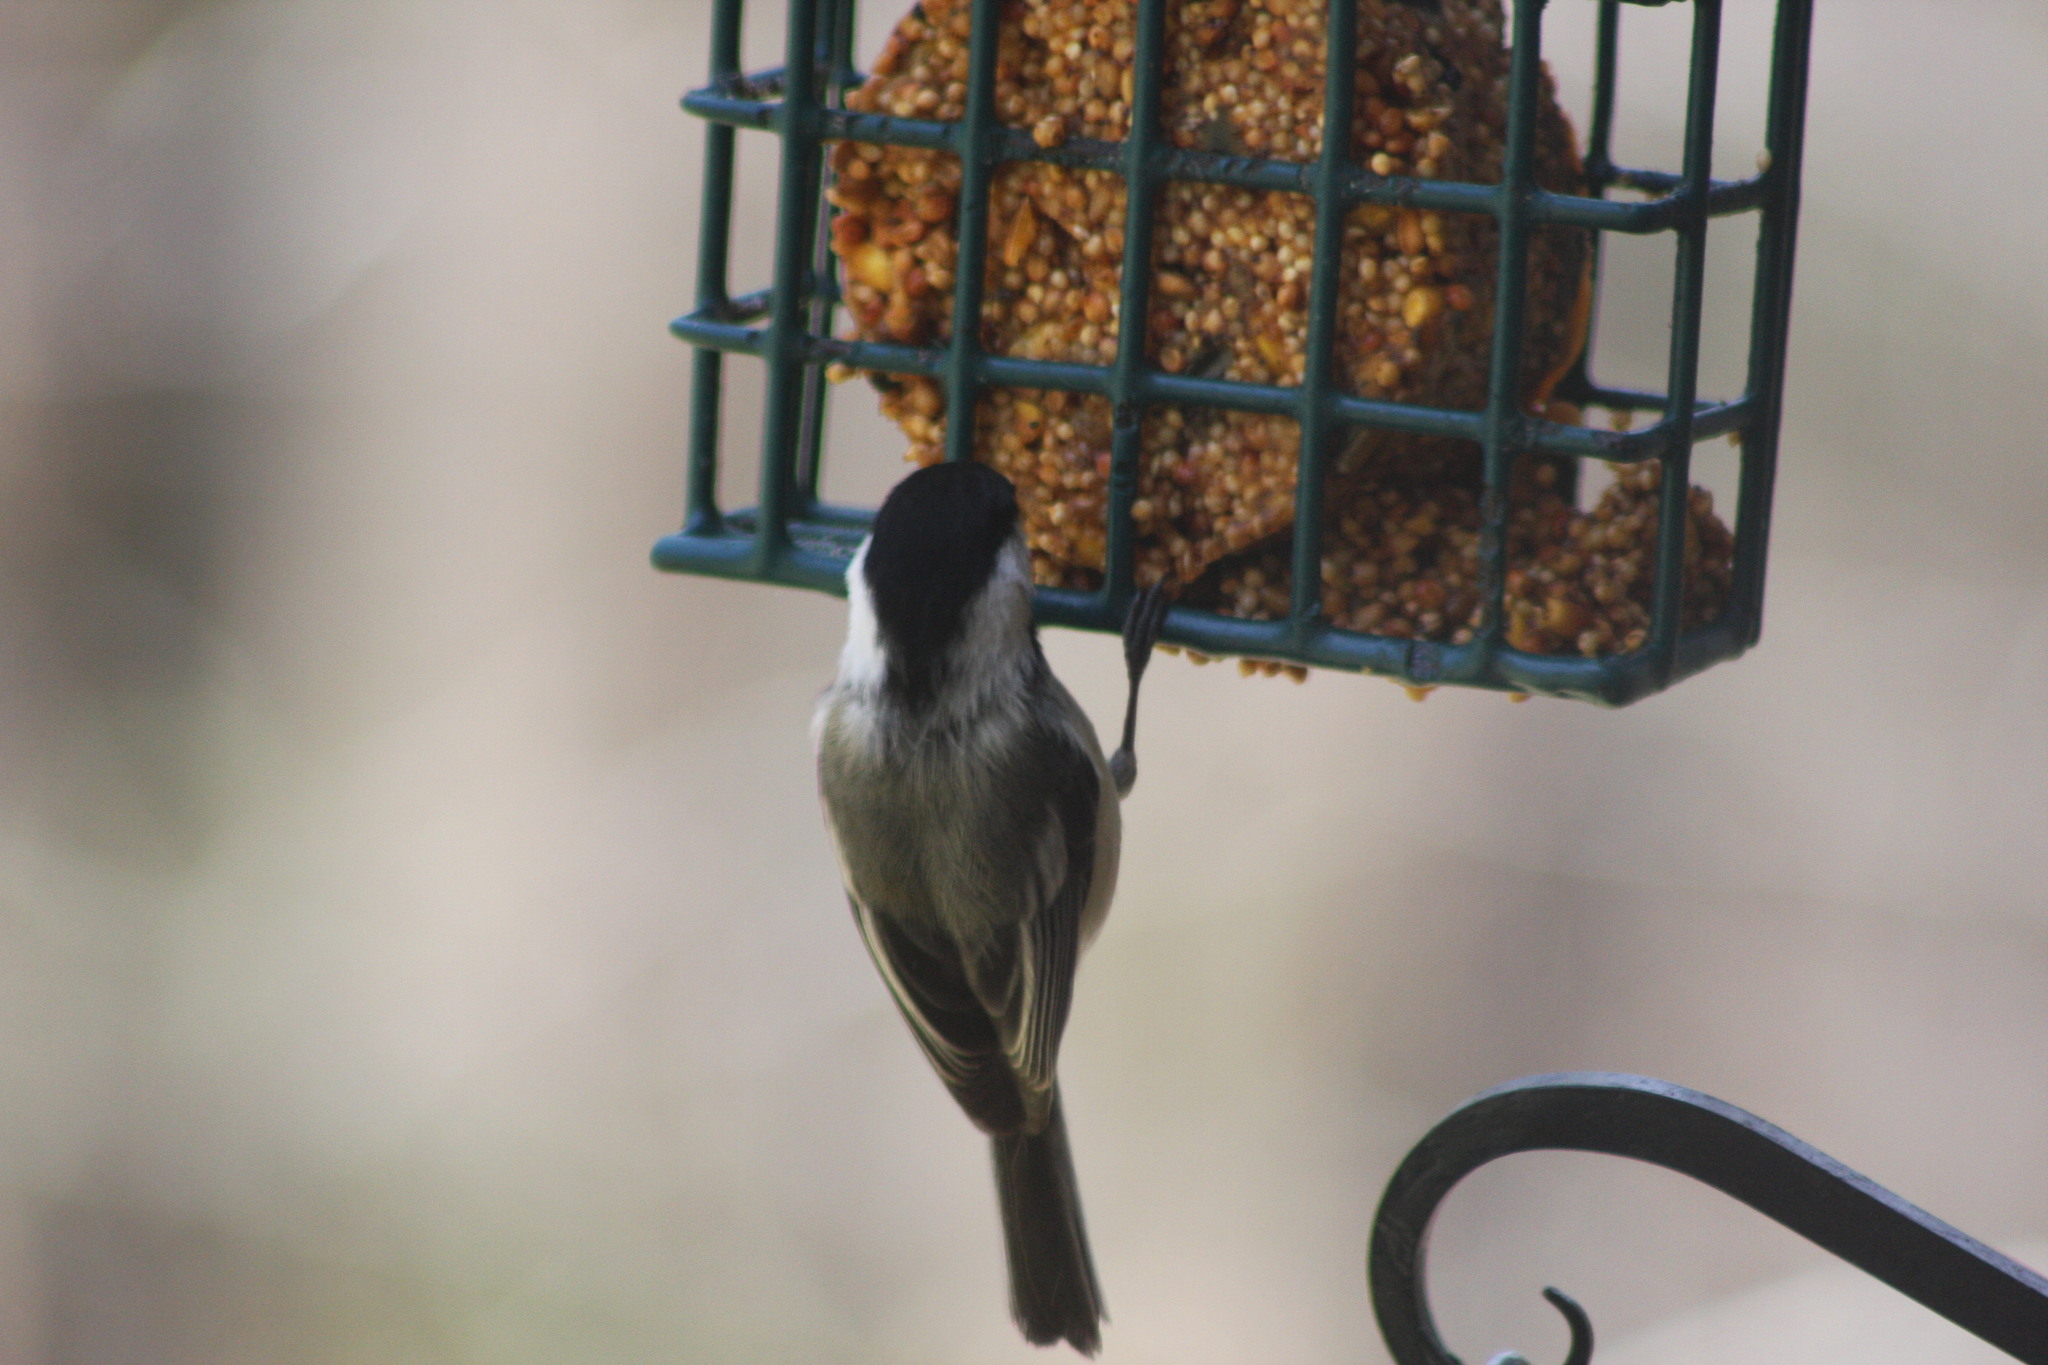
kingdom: Animalia
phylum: Chordata
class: Aves
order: Passeriformes
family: Paridae
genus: Poecile
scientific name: Poecile atricapillus
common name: Black-capped chickadee
